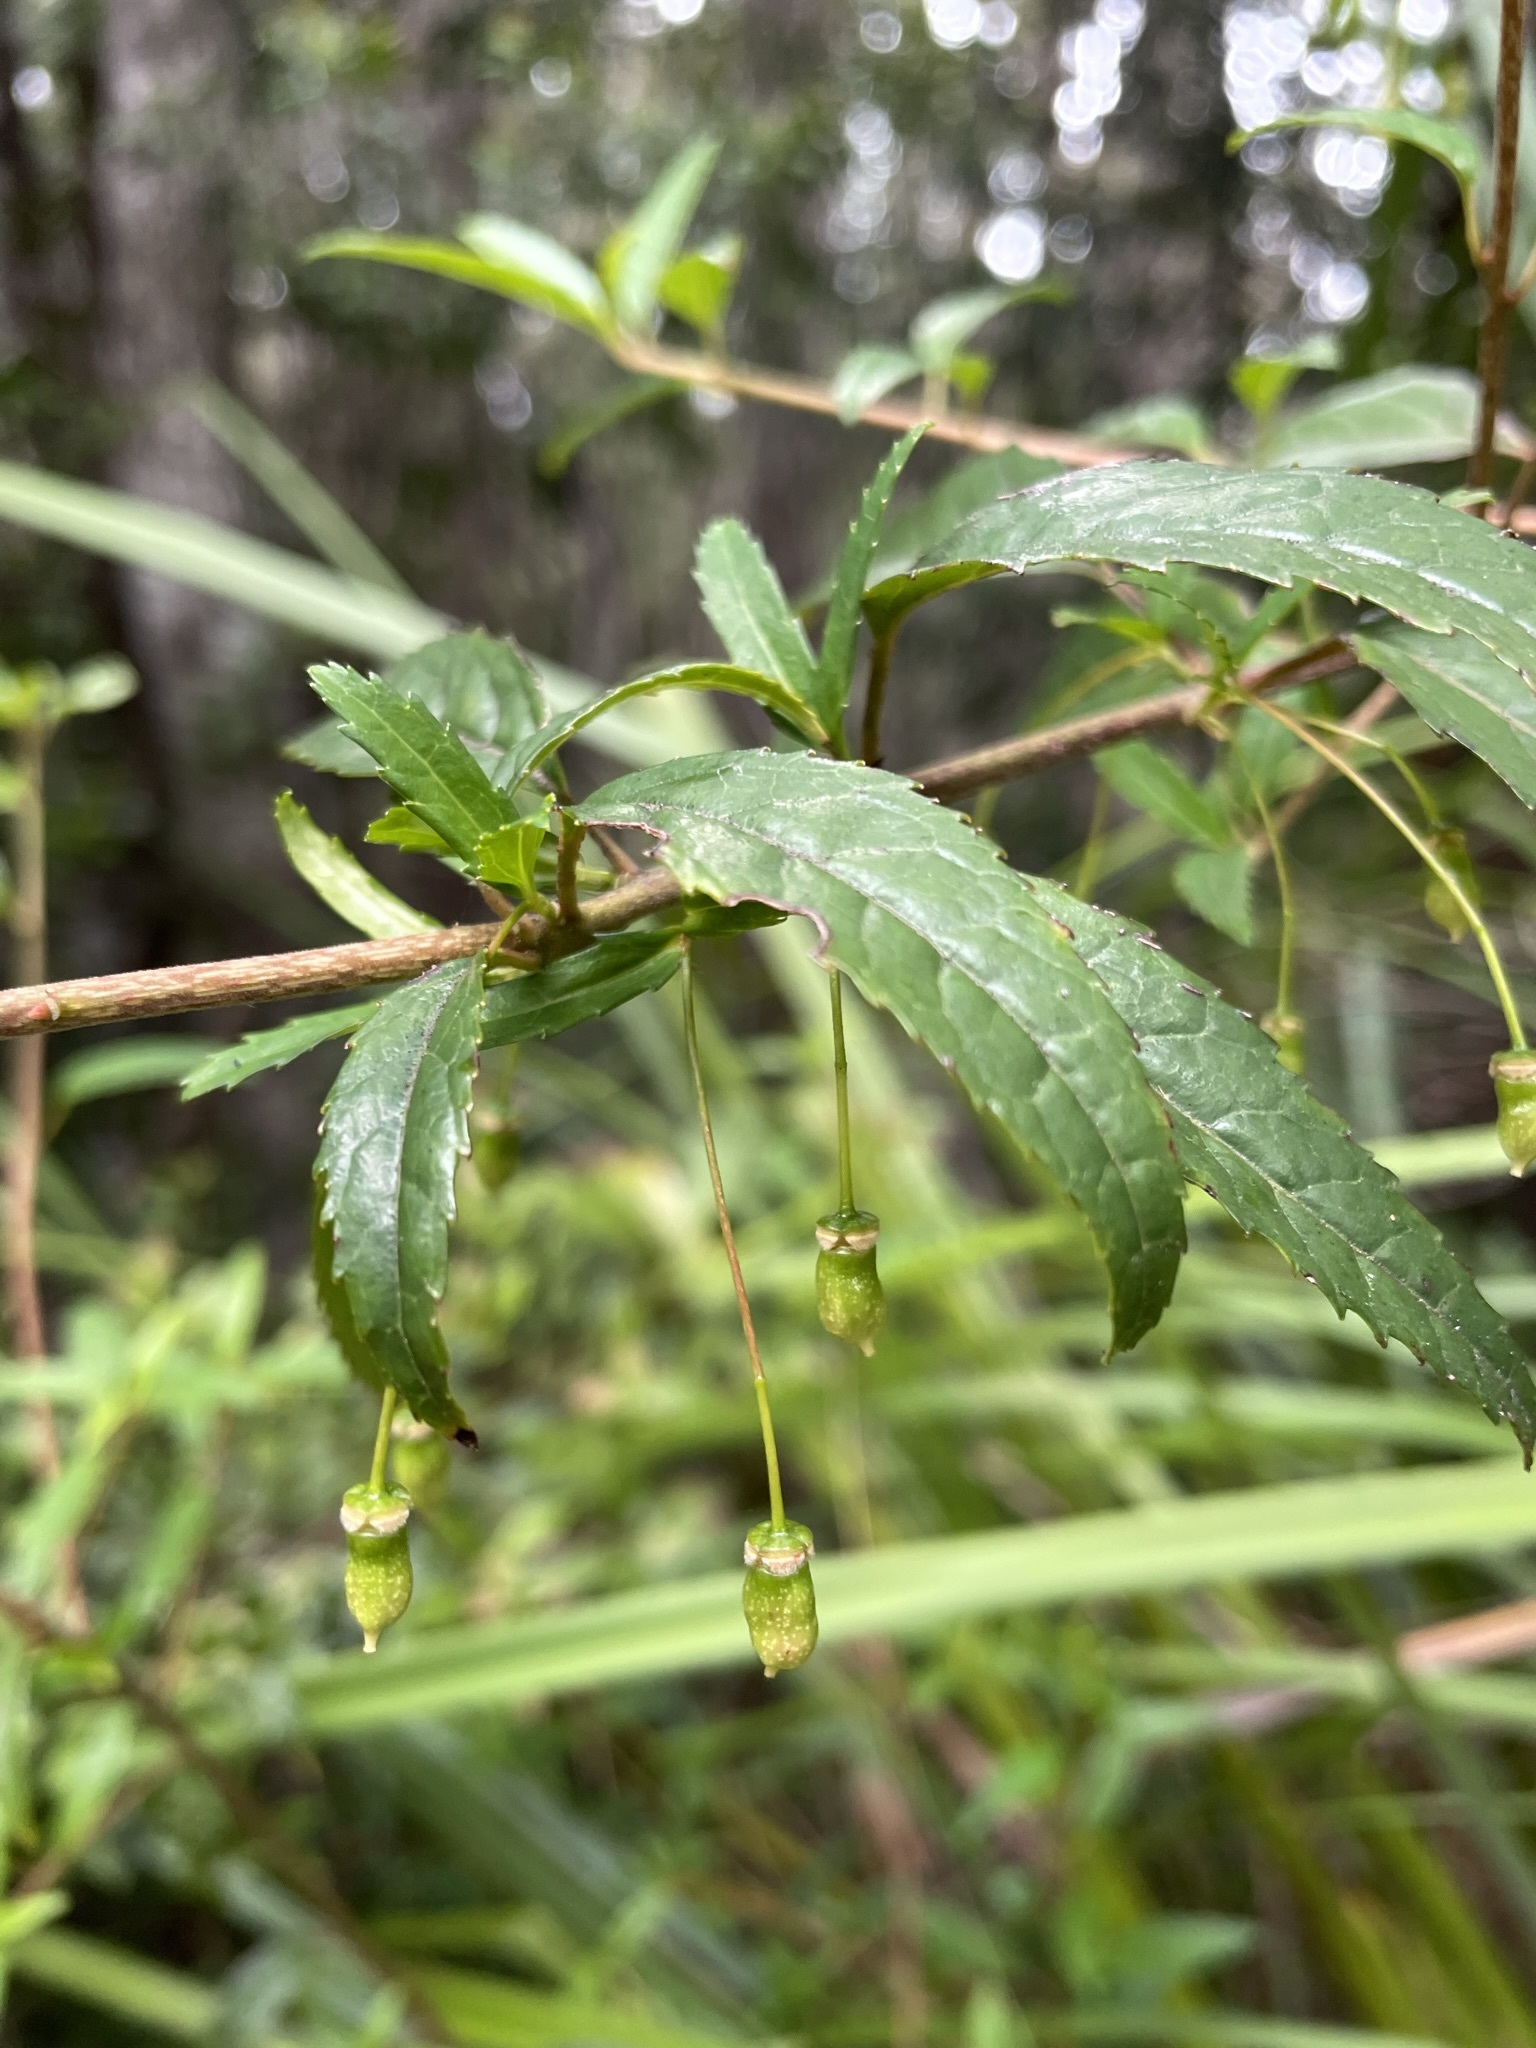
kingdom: Plantae
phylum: Tracheophyta
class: Magnoliopsida
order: Oxalidales
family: Elaeocarpaceae
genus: Aristotelia
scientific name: Aristotelia peduncularis
